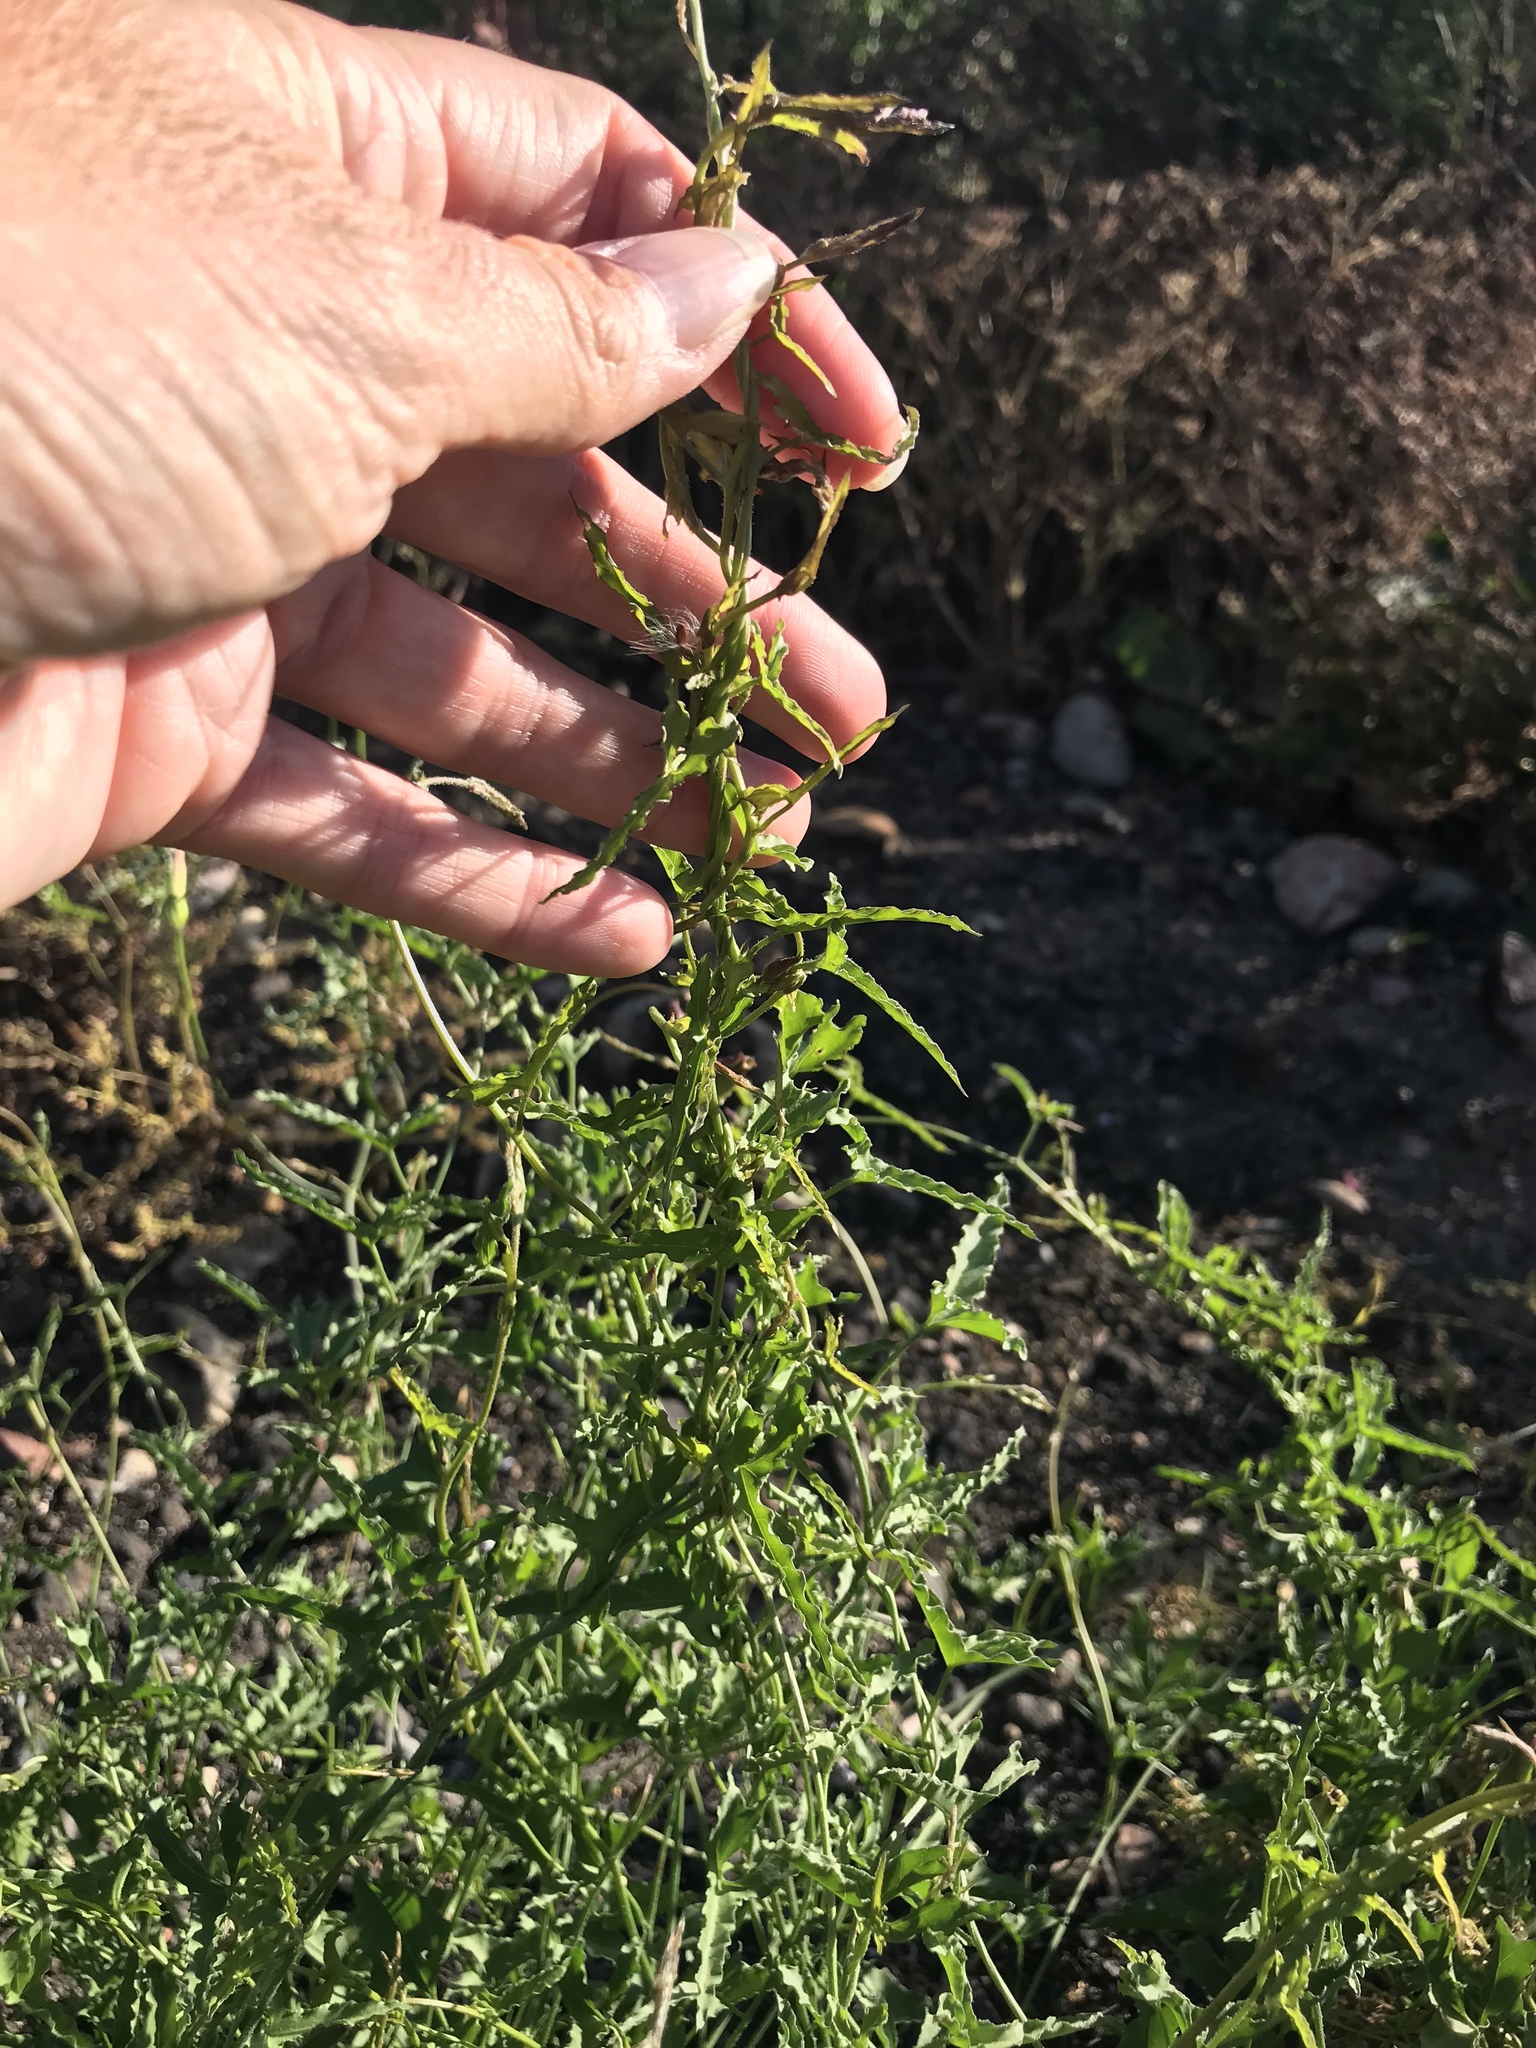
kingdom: Plantae
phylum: Tracheophyta
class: Magnoliopsida
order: Solanales
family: Convolvulaceae
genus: Calystegia
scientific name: Calystegia macrostegia
